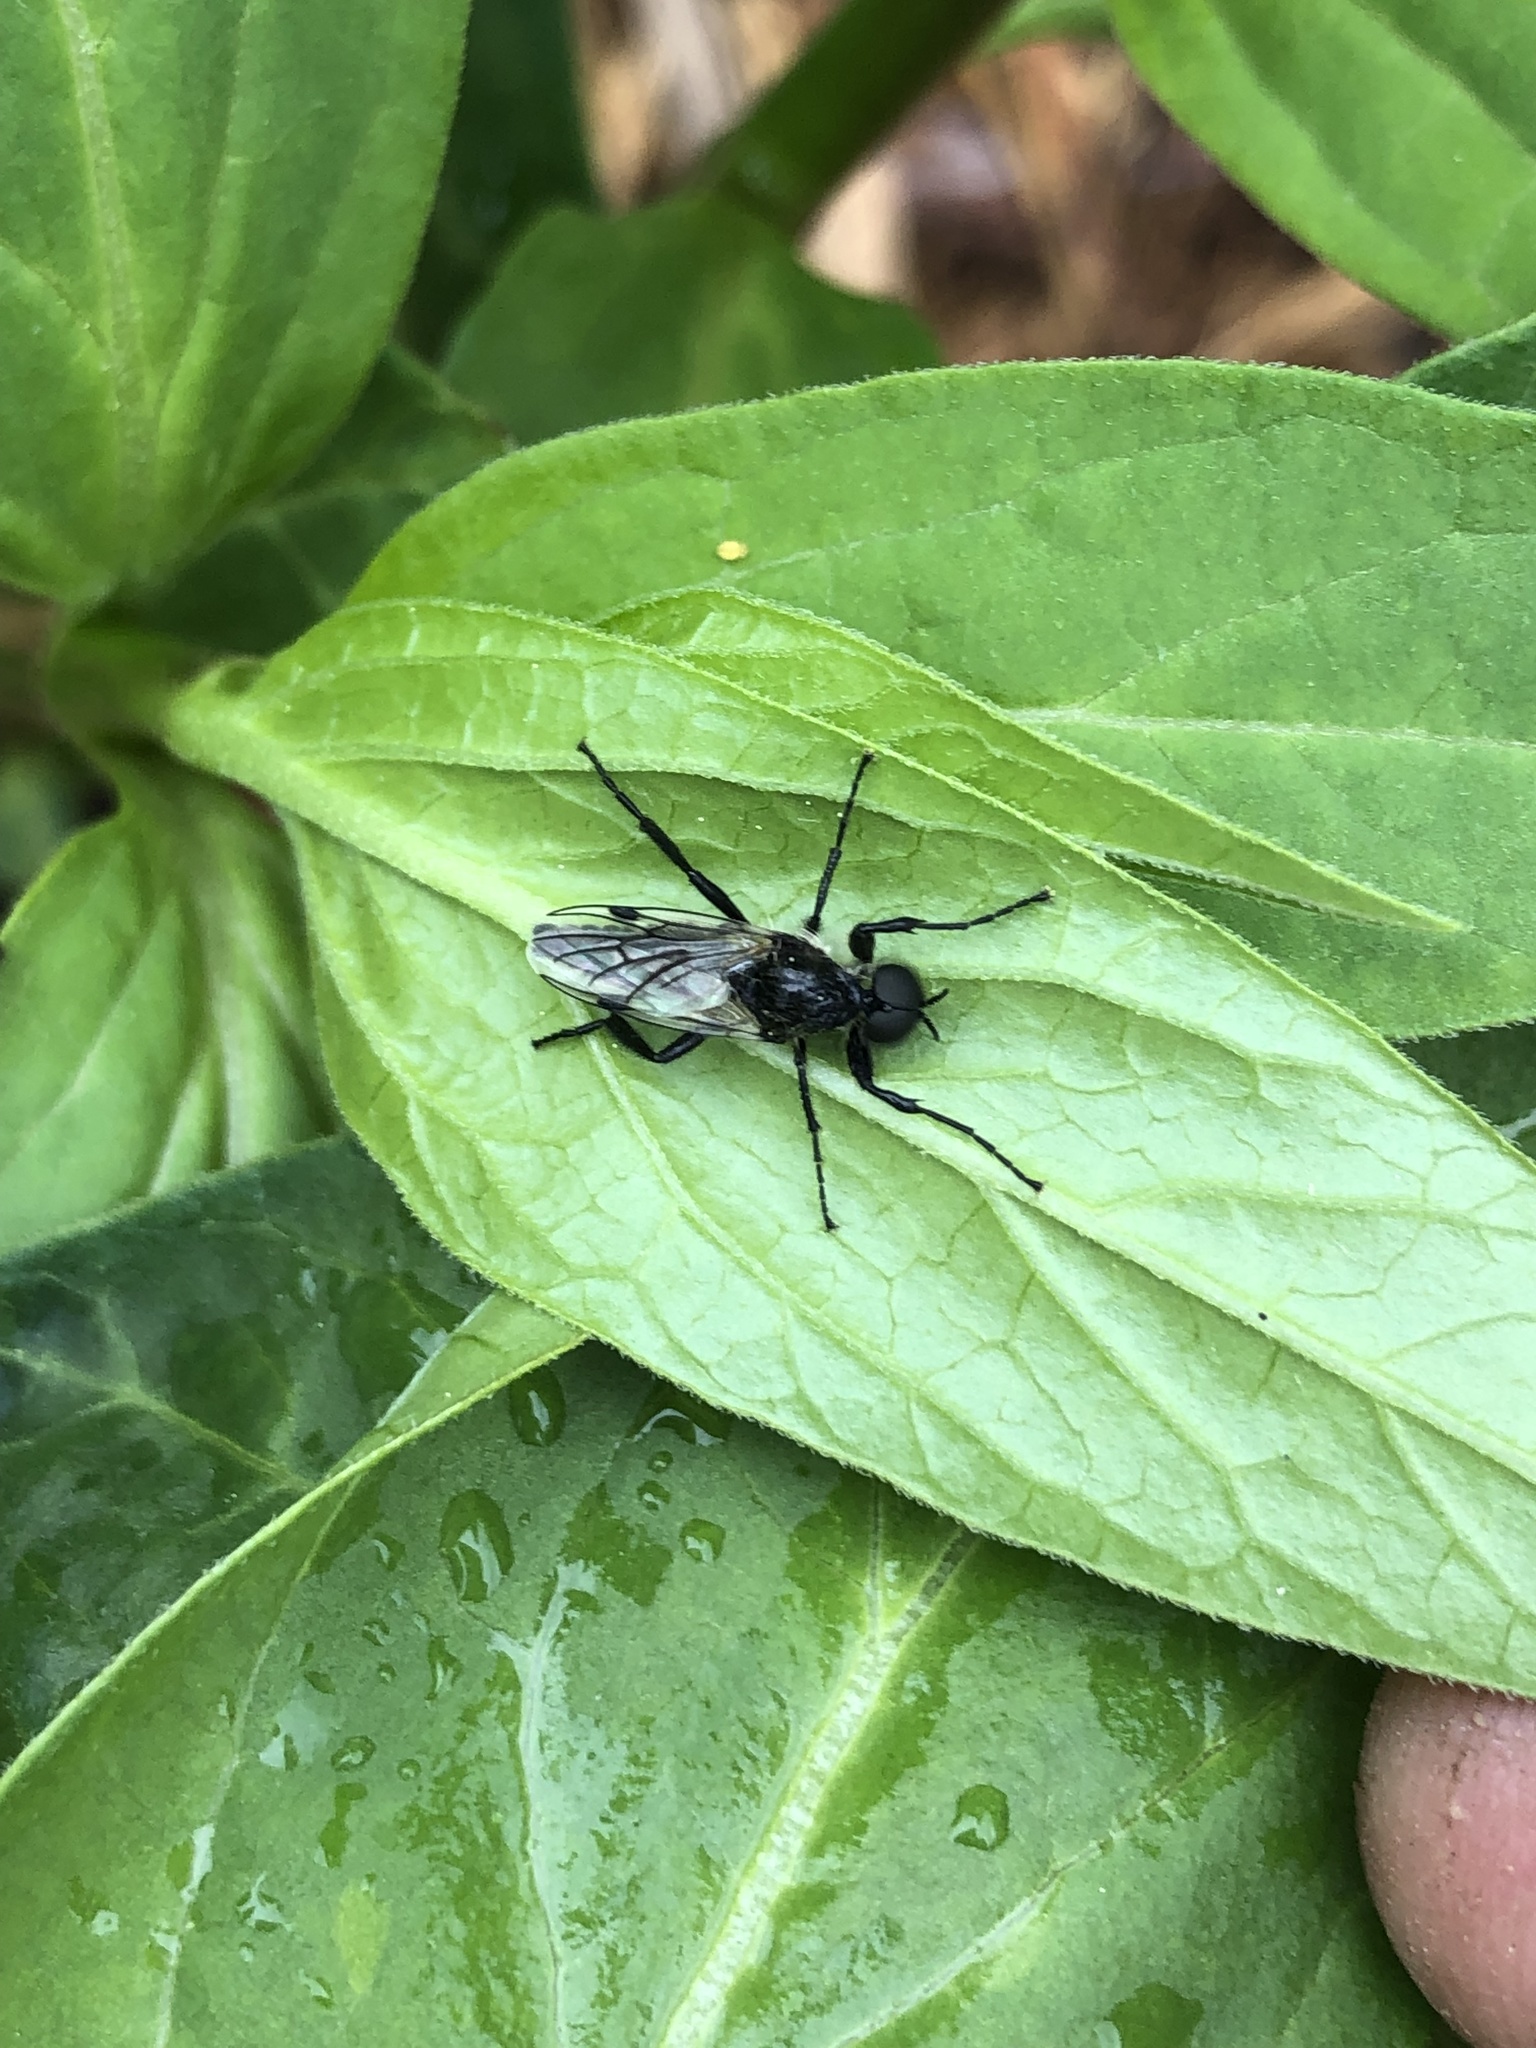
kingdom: Animalia
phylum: Arthropoda
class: Insecta
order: Diptera
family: Bibionidae
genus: Bibio
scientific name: Bibio albipennis
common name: White-winged march fly
